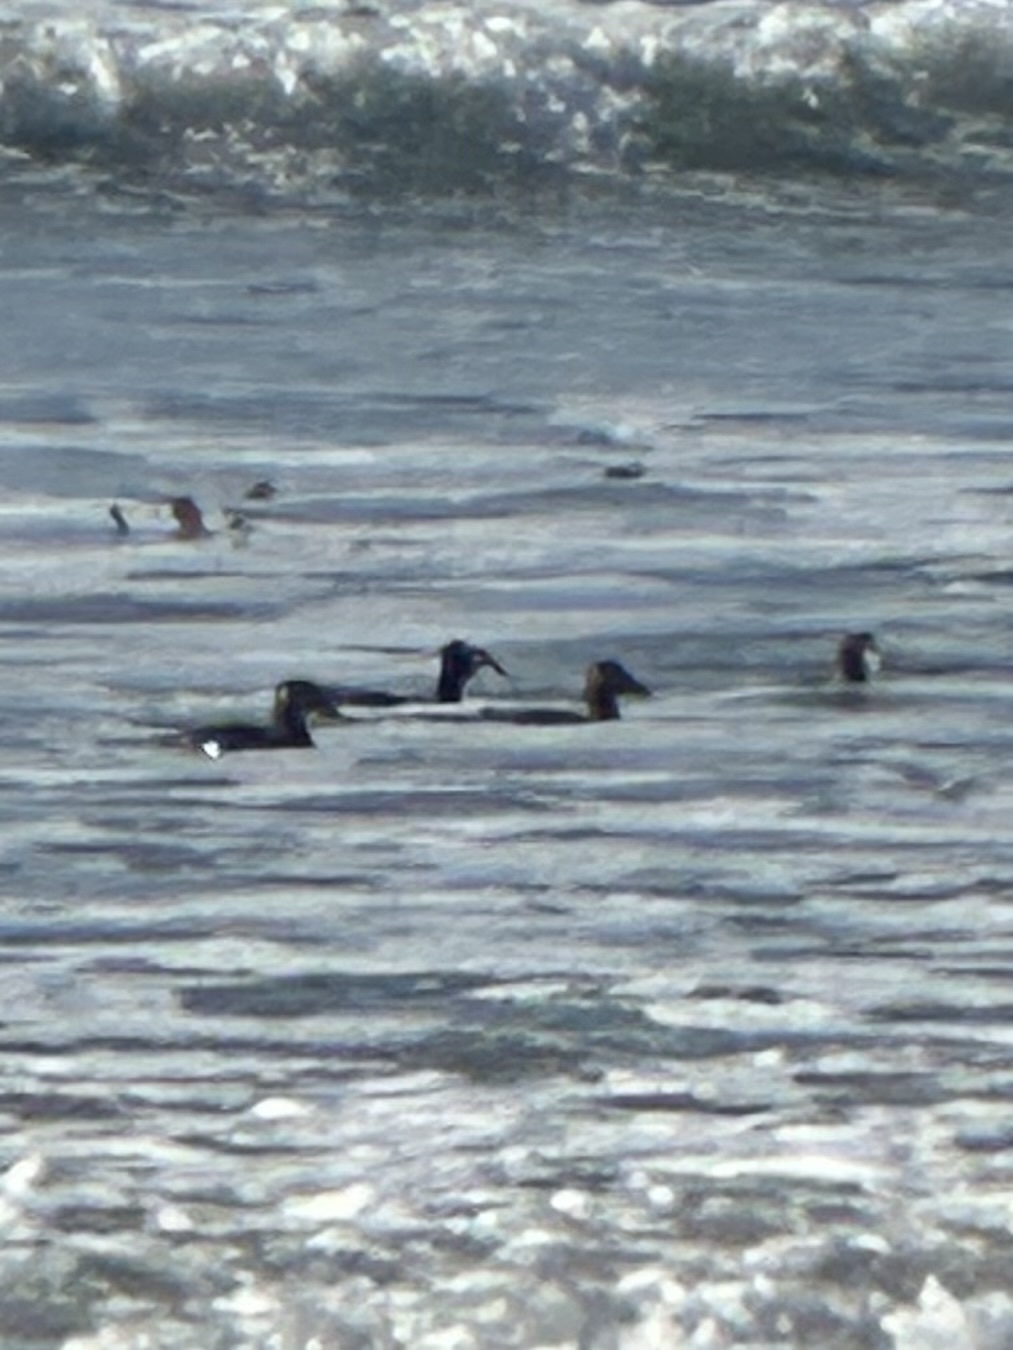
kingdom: Animalia
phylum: Chordata
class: Aves
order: Anseriformes
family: Anatidae
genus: Melanitta
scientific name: Melanitta perspicillata
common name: Surf scoter
